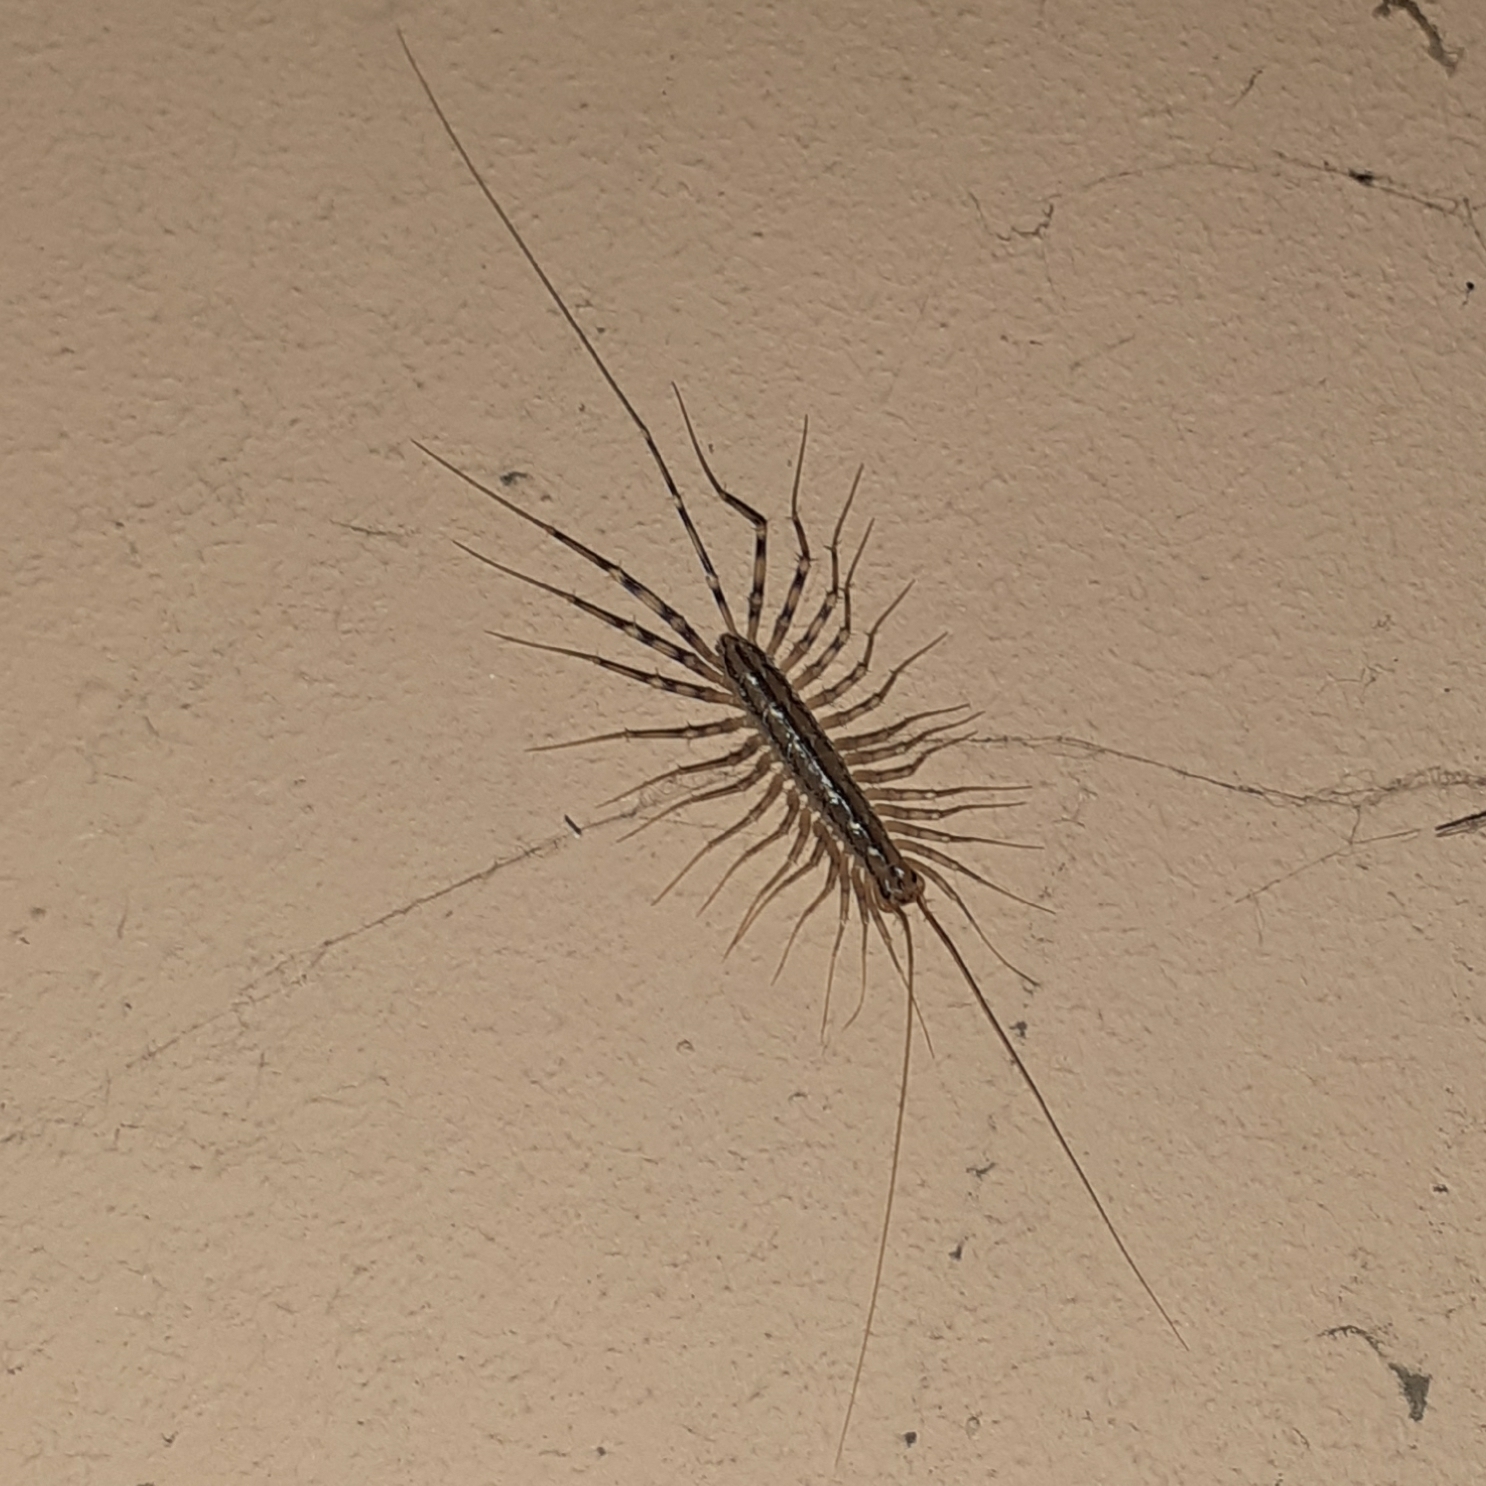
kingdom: Animalia
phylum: Arthropoda
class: Chilopoda
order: Scutigeromorpha
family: Scutigeridae
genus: Scutigera
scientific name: Scutigera coleoptrata
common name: House centipede
